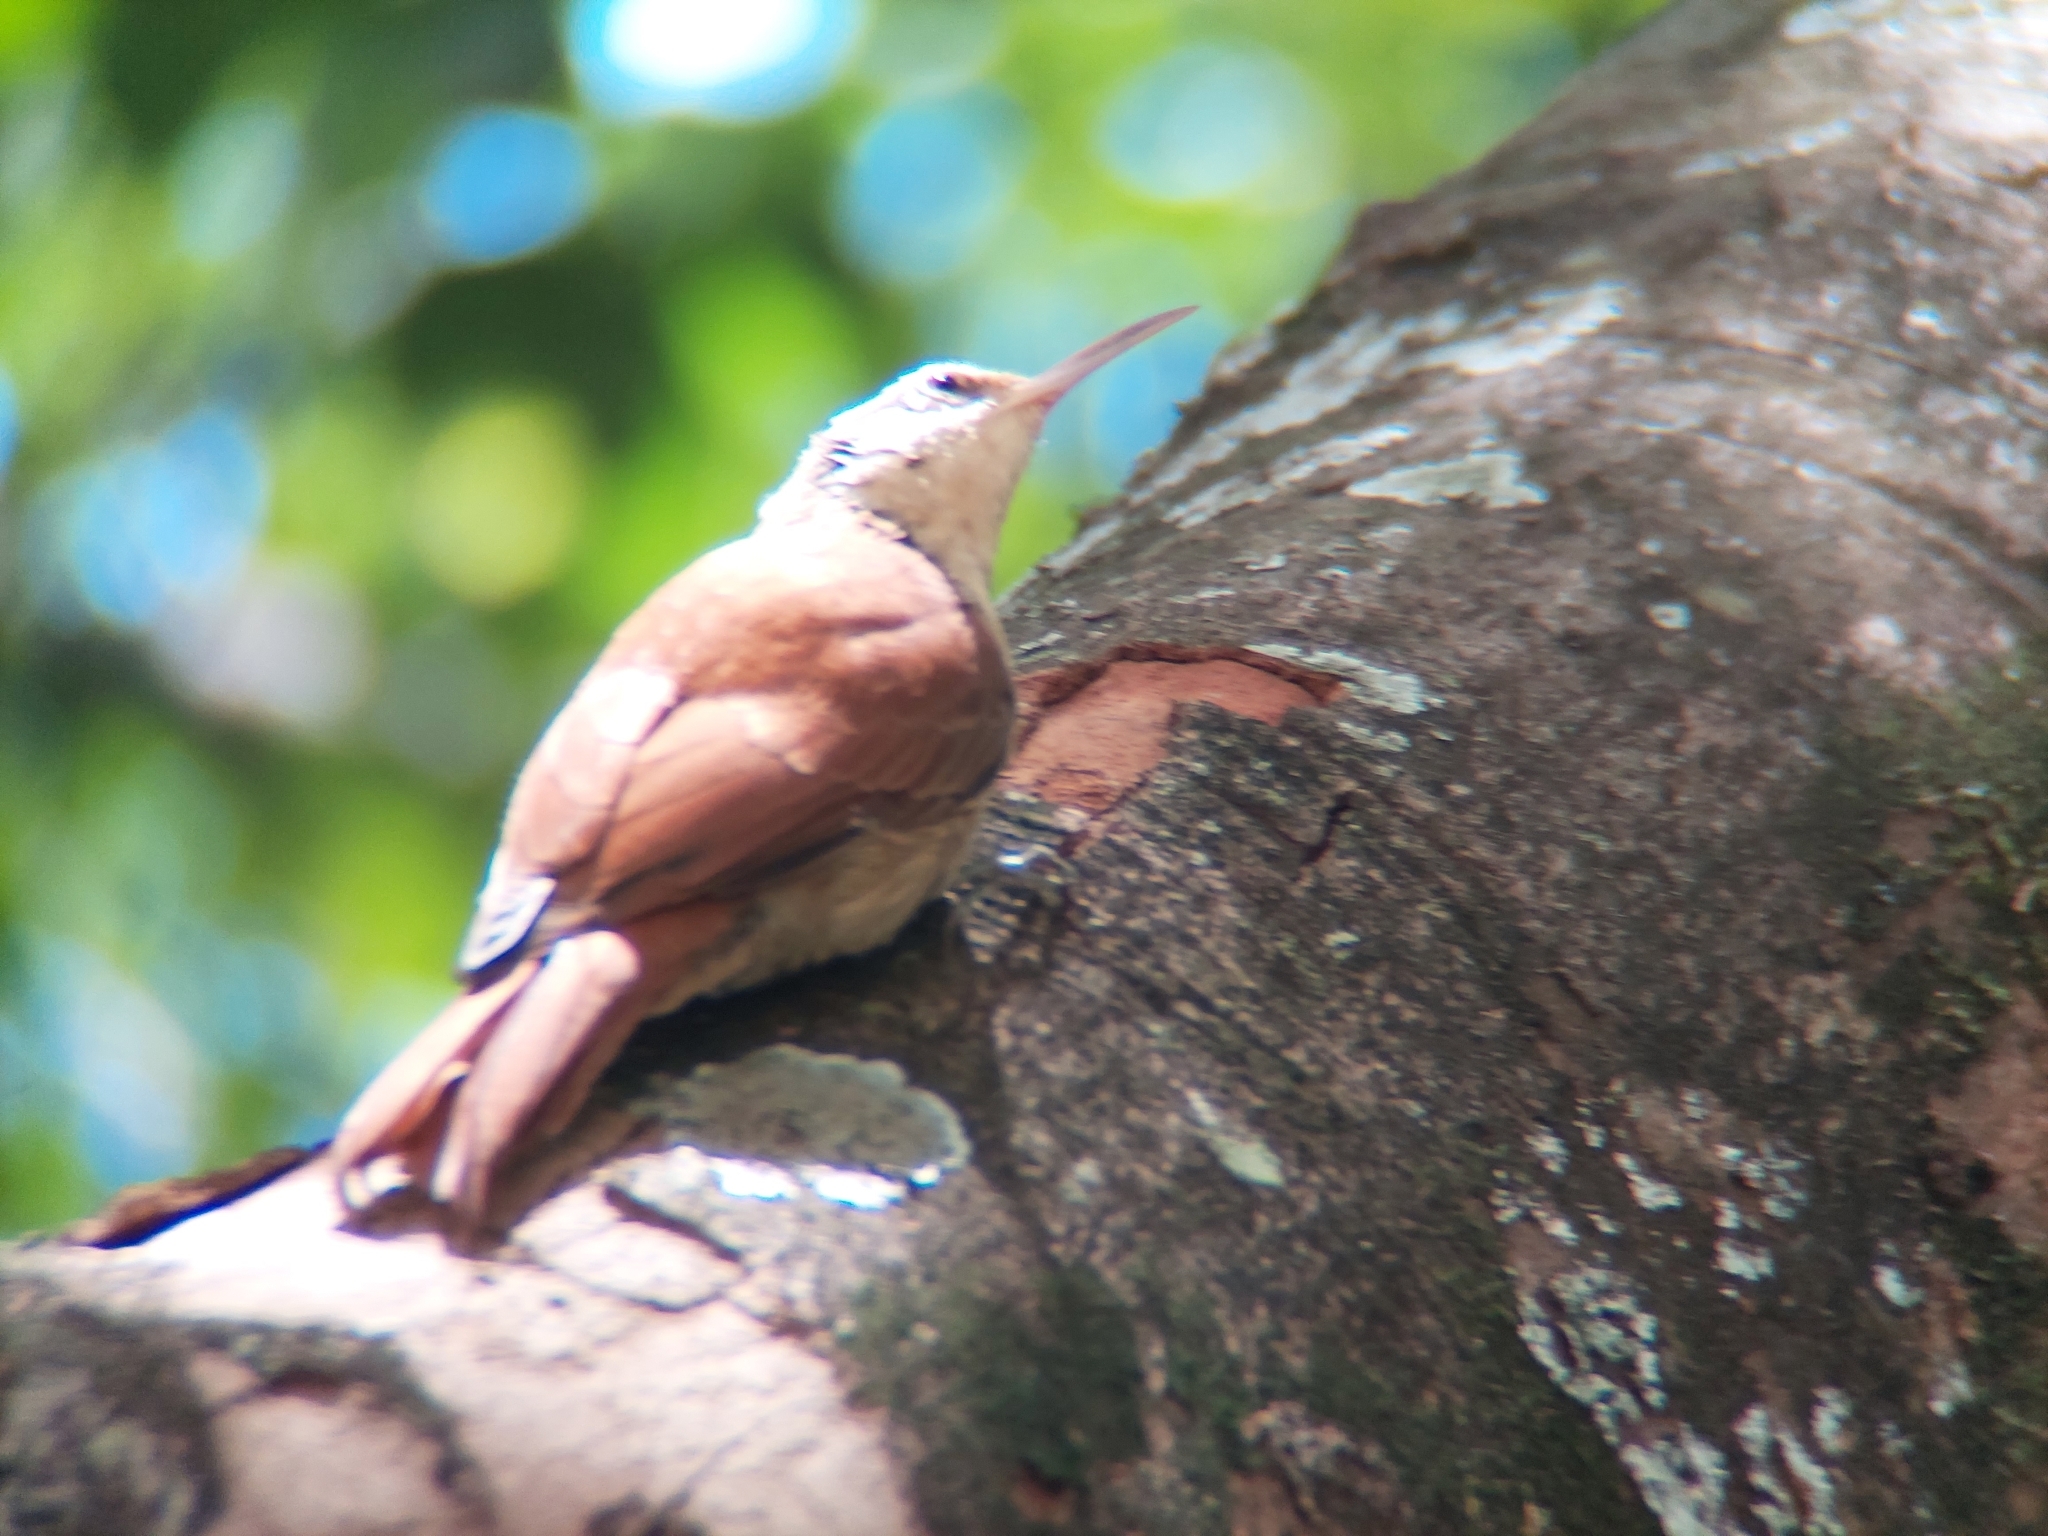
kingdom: Animalia
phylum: Chordata
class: Aves
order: Passeriformes
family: Furnariidae
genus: Lepidocolaptes
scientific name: Lepidocolaptes angustirostris
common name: Narrow-billed woodcreeper
